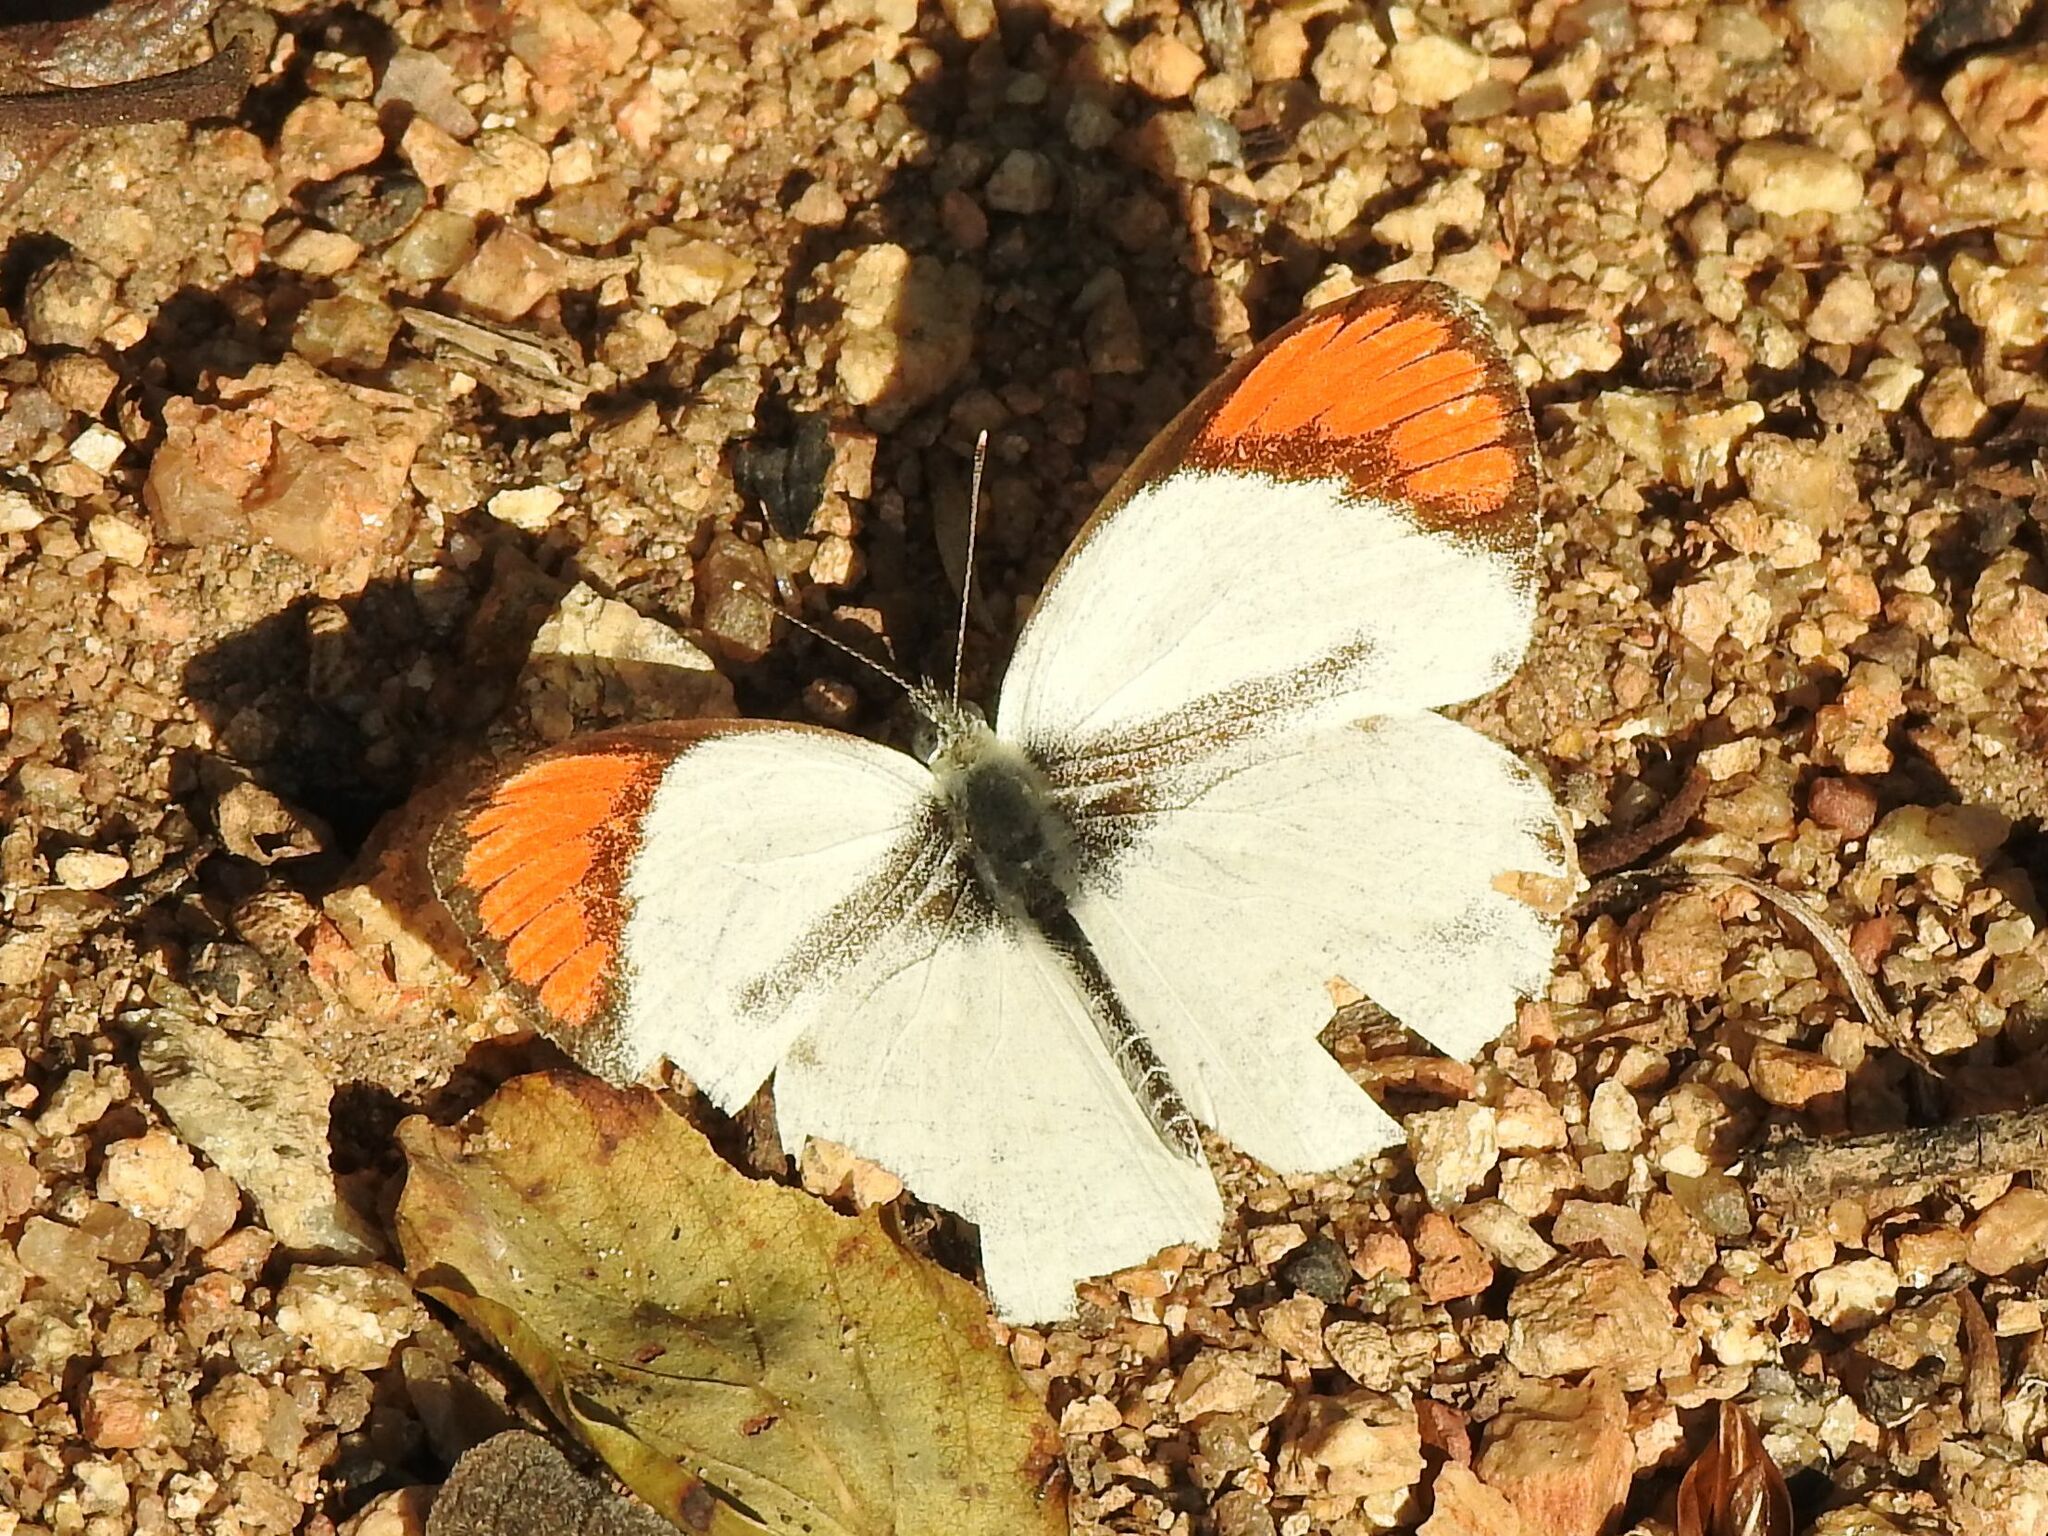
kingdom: Animalia
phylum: Arthropoda
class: Insecta
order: Lepidoptera
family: Pieridae
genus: Colotis
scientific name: Colotis euippe
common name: Round-winged orange tip
